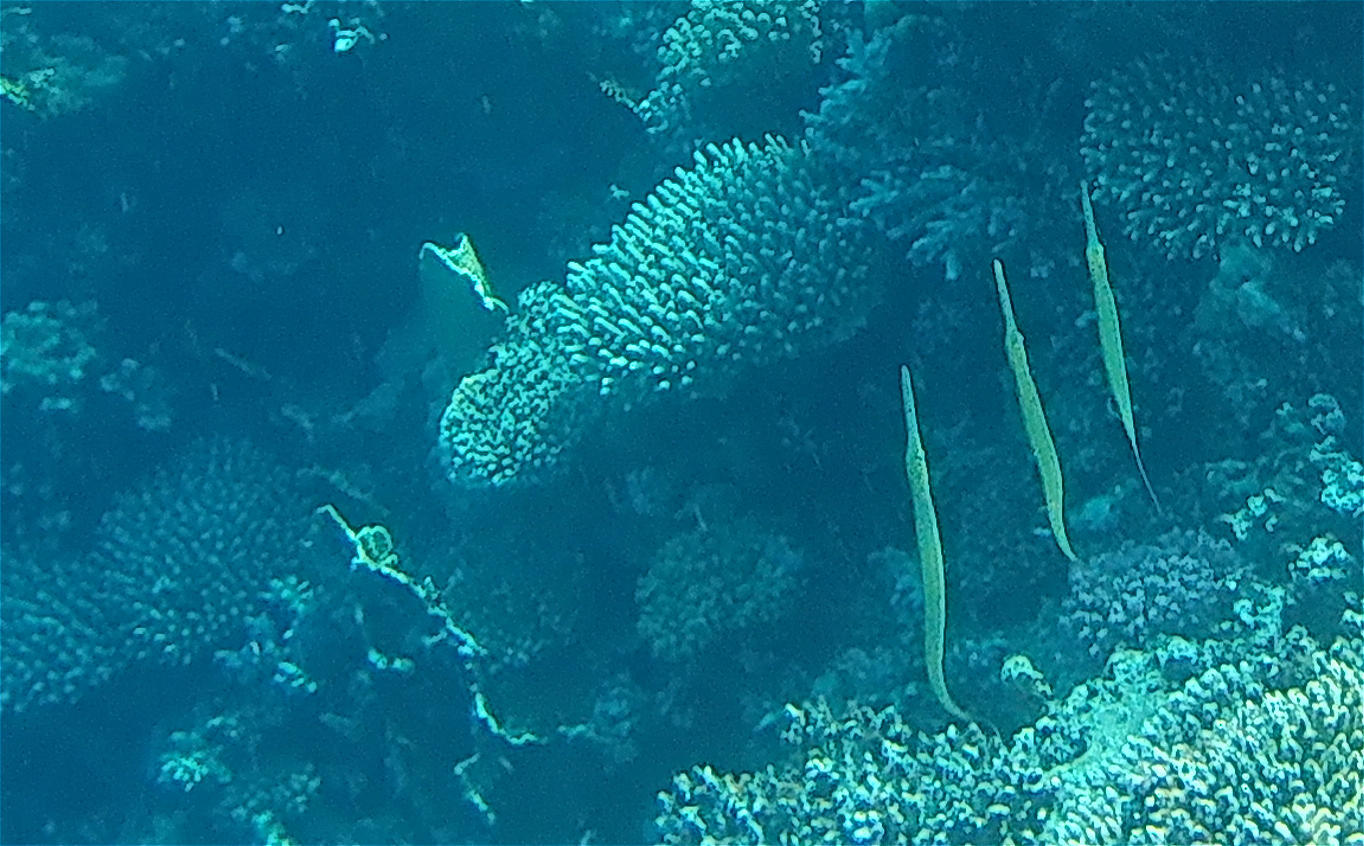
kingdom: Animalia
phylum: Chordata
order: Syngnathiformes
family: Fistulariidae
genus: Fistularia
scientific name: Fistularia commersonii
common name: Bluespotted cornetfish
